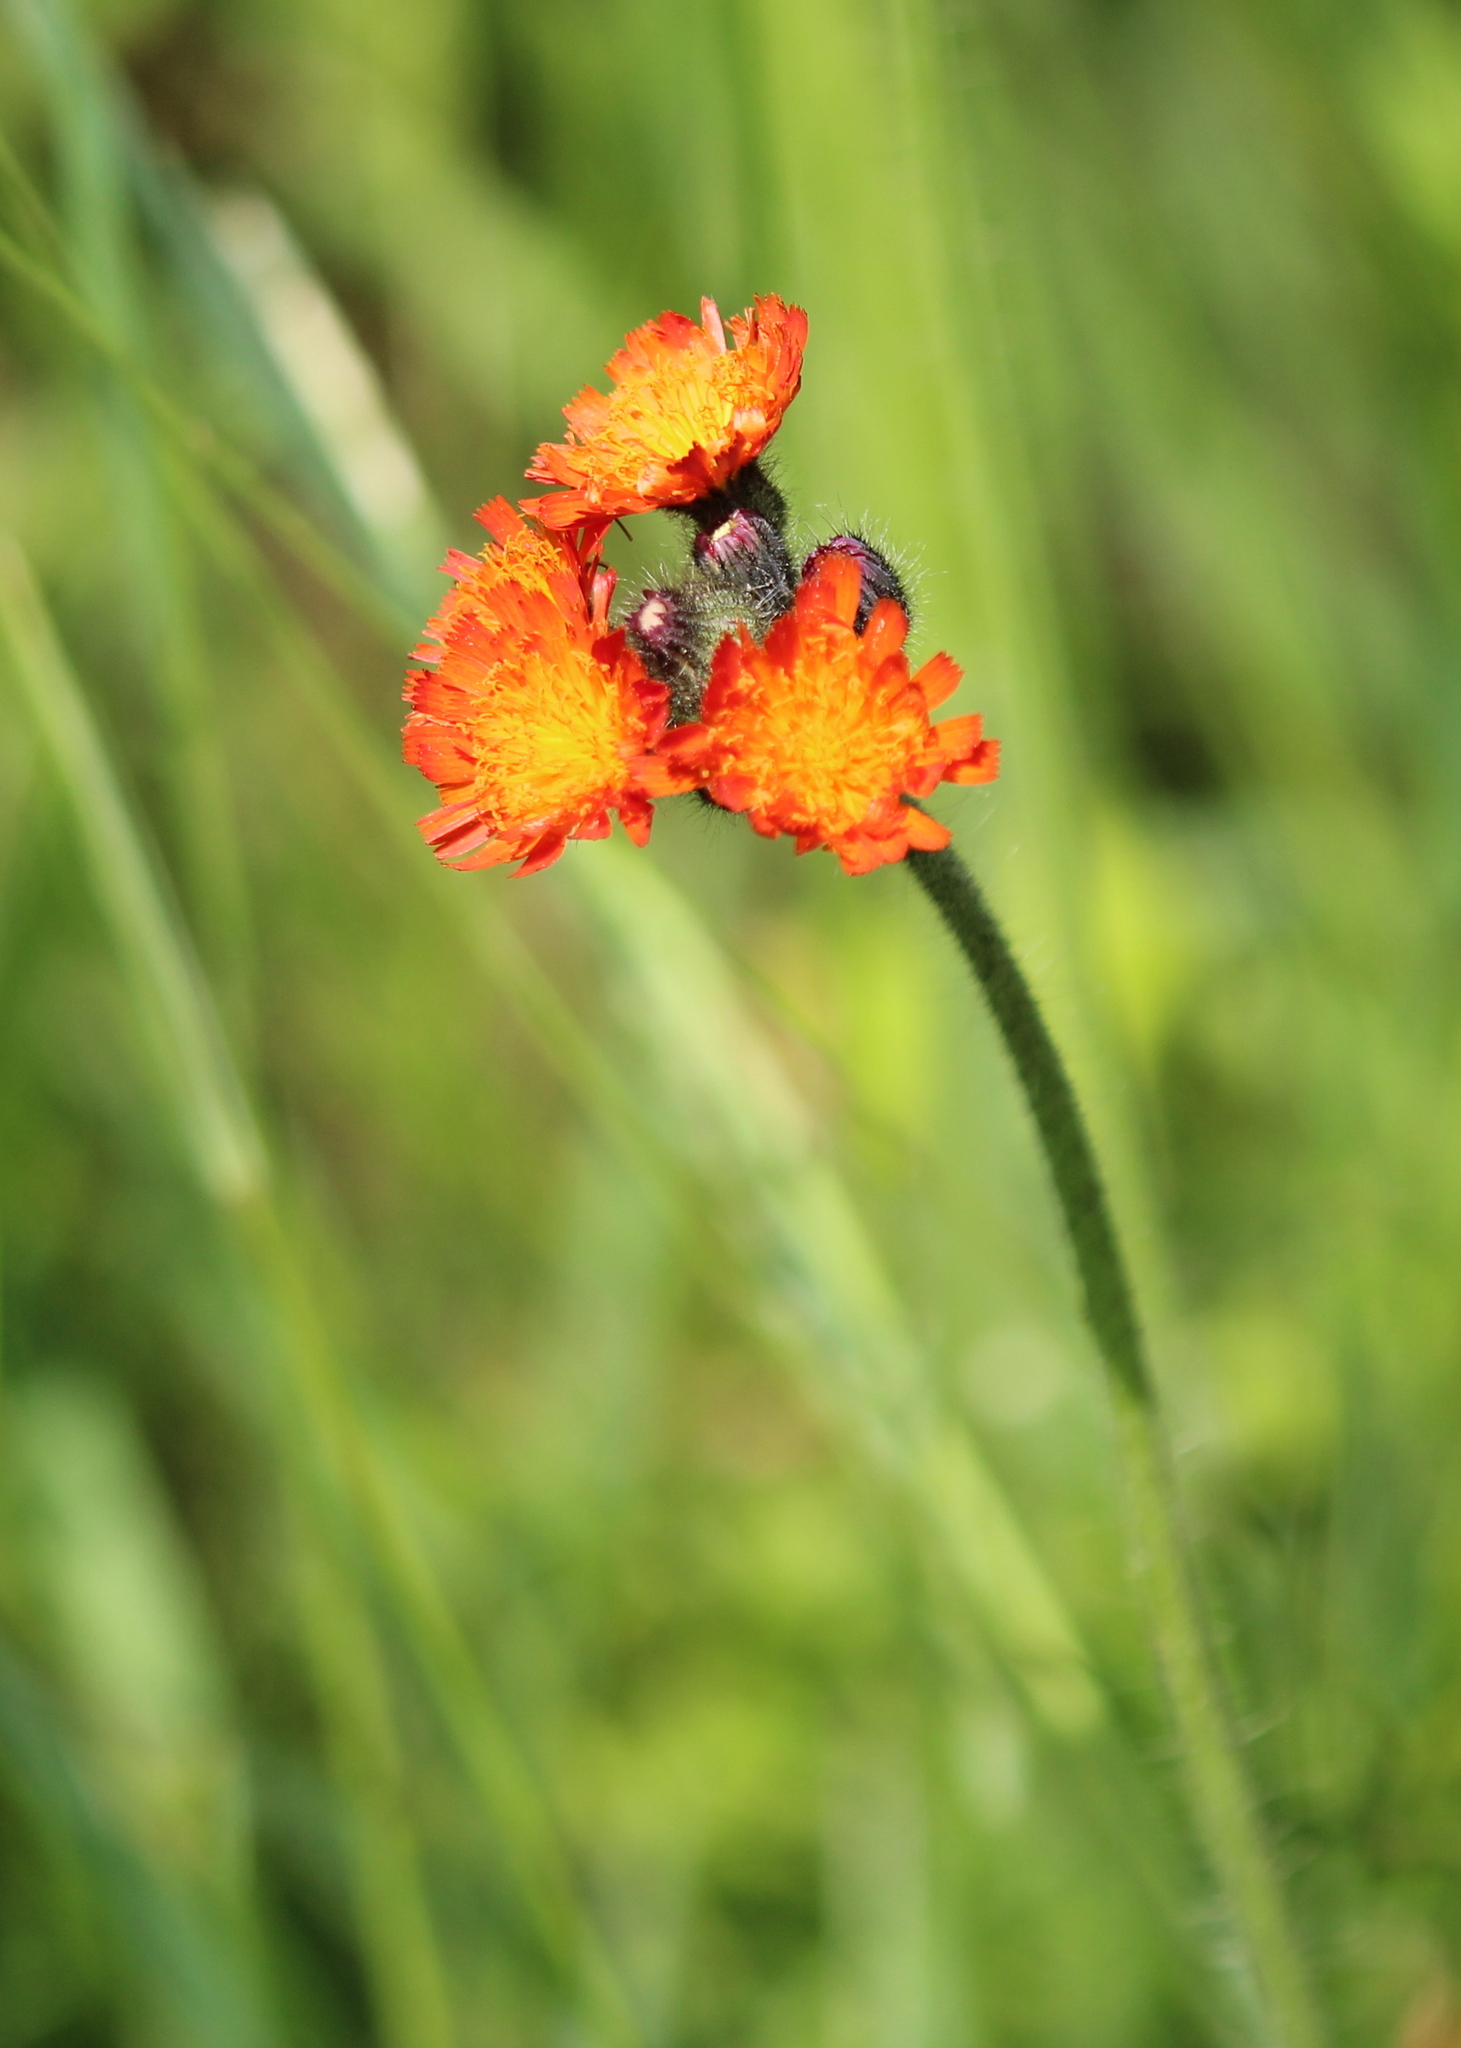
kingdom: Plantae
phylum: Tracheophyta
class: Magnoliopsida
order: Asterales
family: Asteraceae
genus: Pilosella
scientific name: Pilosella aurantiaca
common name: Fox-and-cubs
